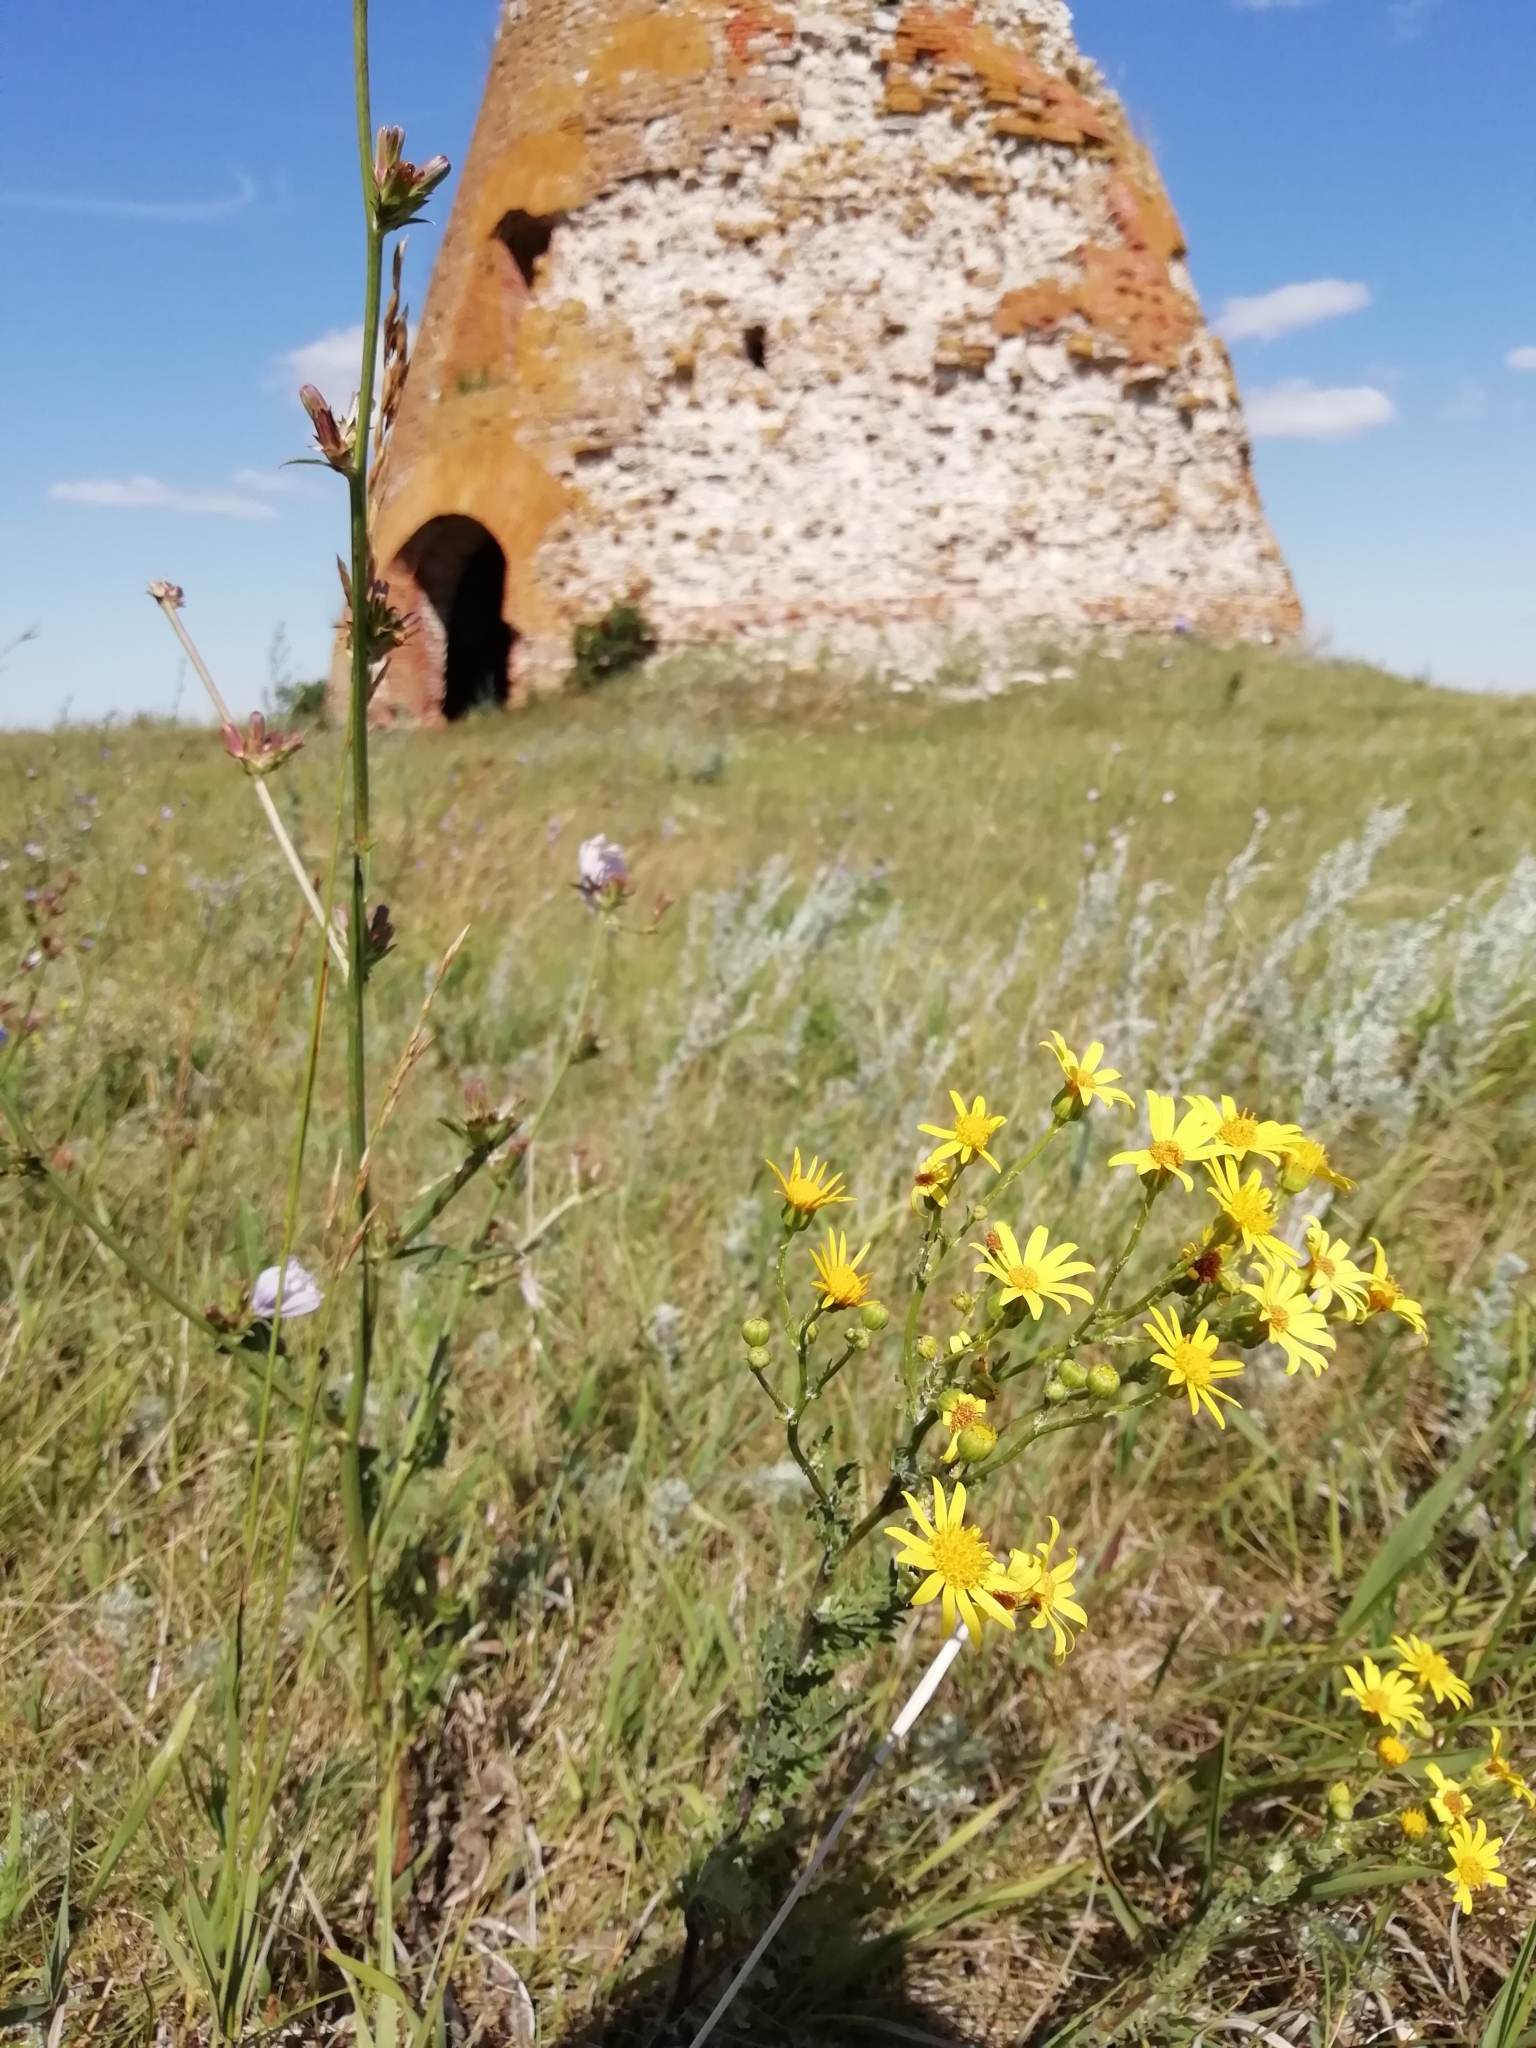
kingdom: Plantae
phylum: Tracheophyta
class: Magnoliopsida
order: Asterales
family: Asteraceae
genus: Jacobaea
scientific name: Jacobaea vulgaris
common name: Stinking willie
